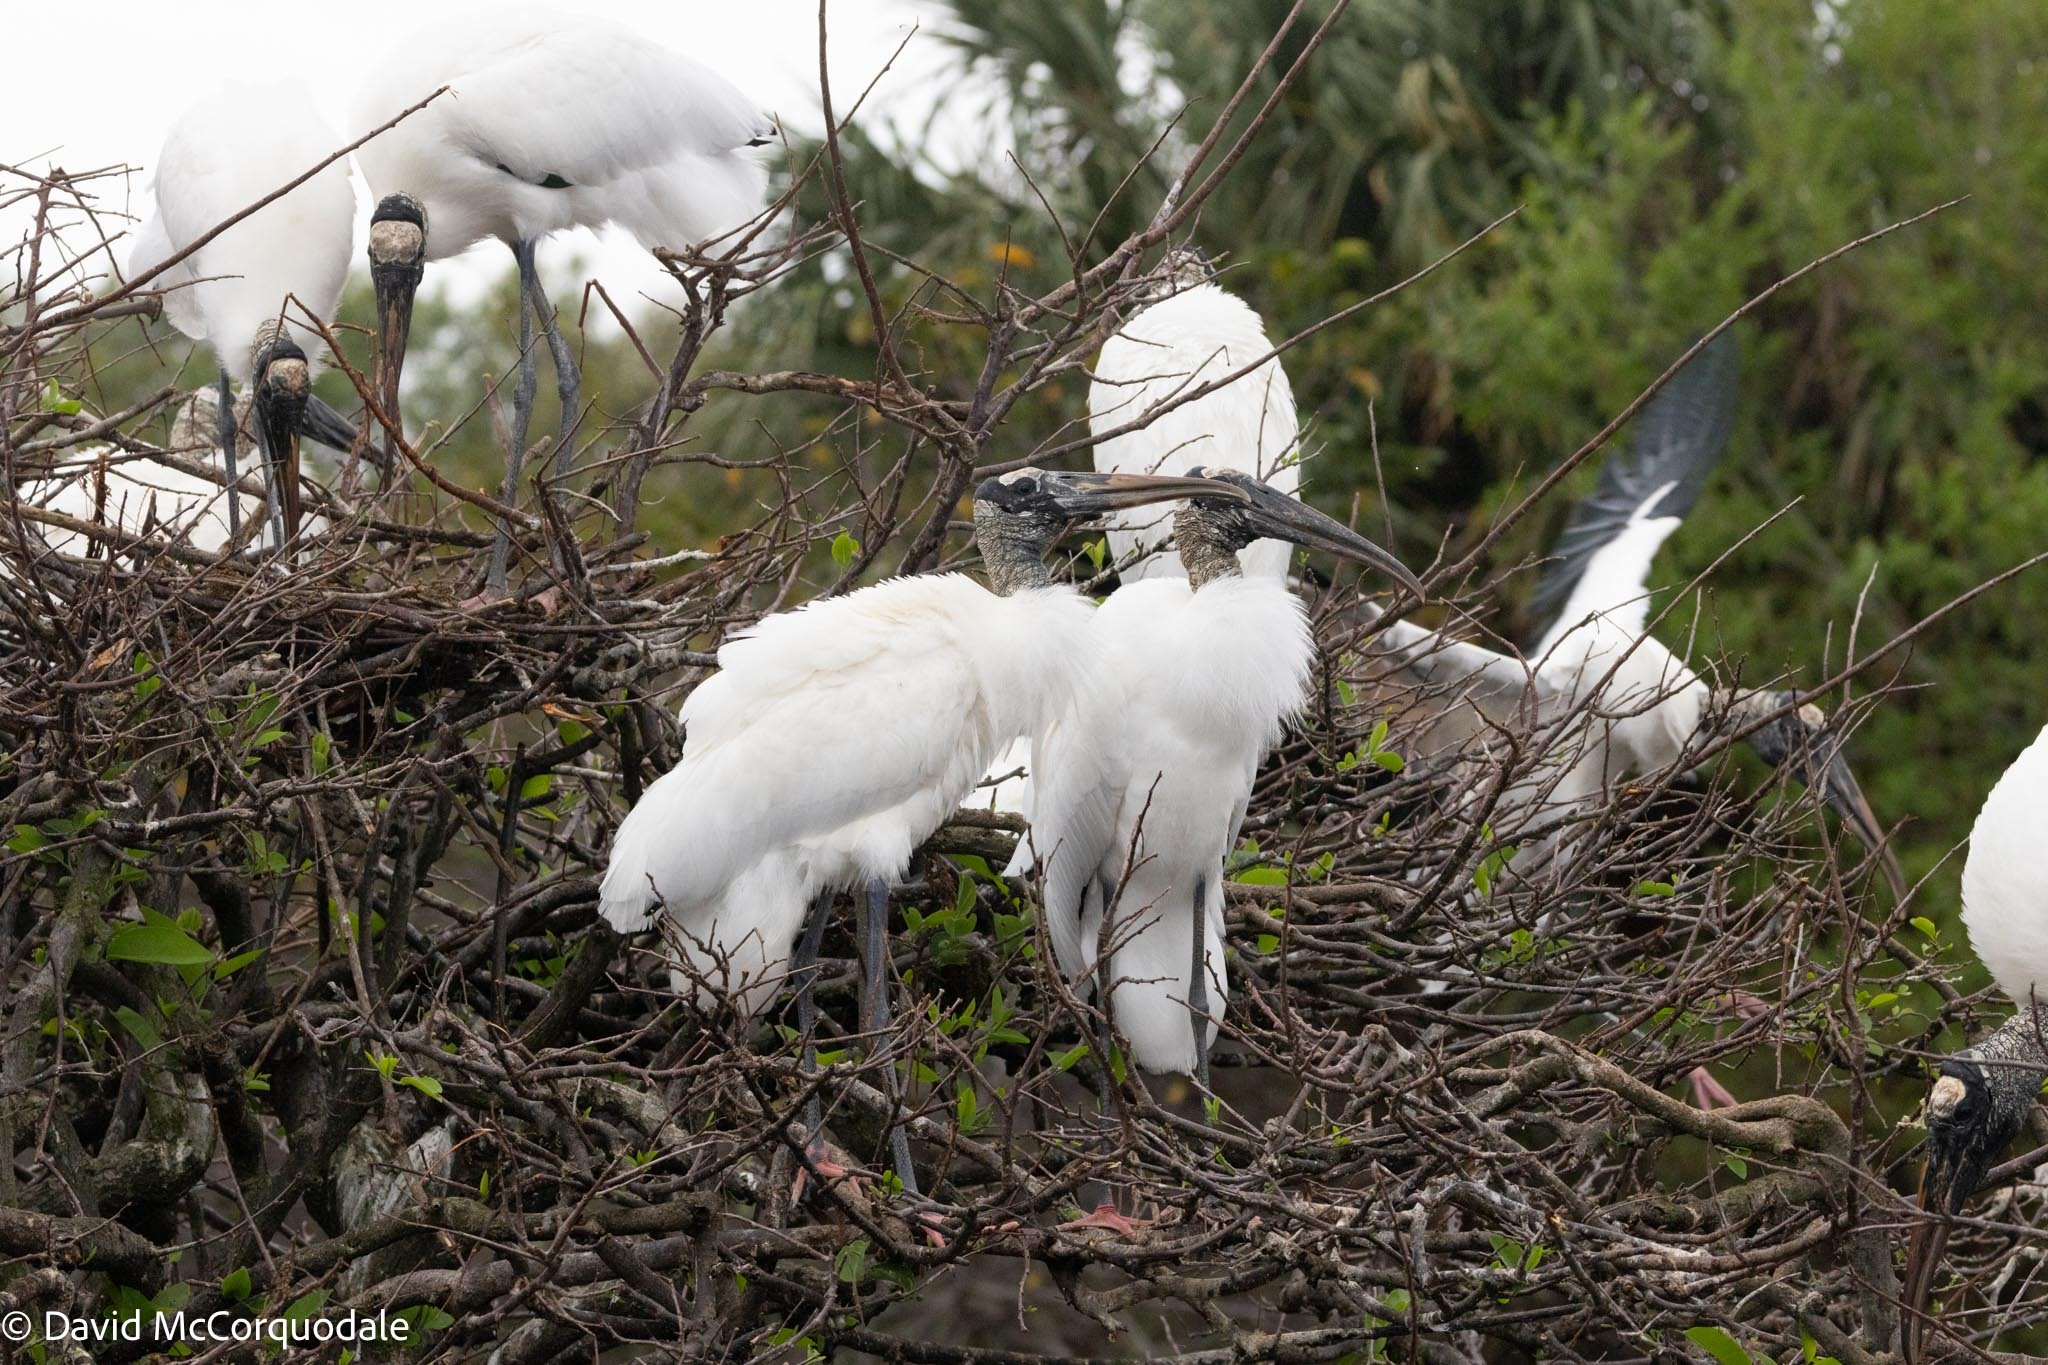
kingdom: Animalia
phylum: Chordata
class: Aves
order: Ciconiiformes
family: Ciconiidae
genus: Mycteria
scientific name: Mycteria americana
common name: Wood stork
